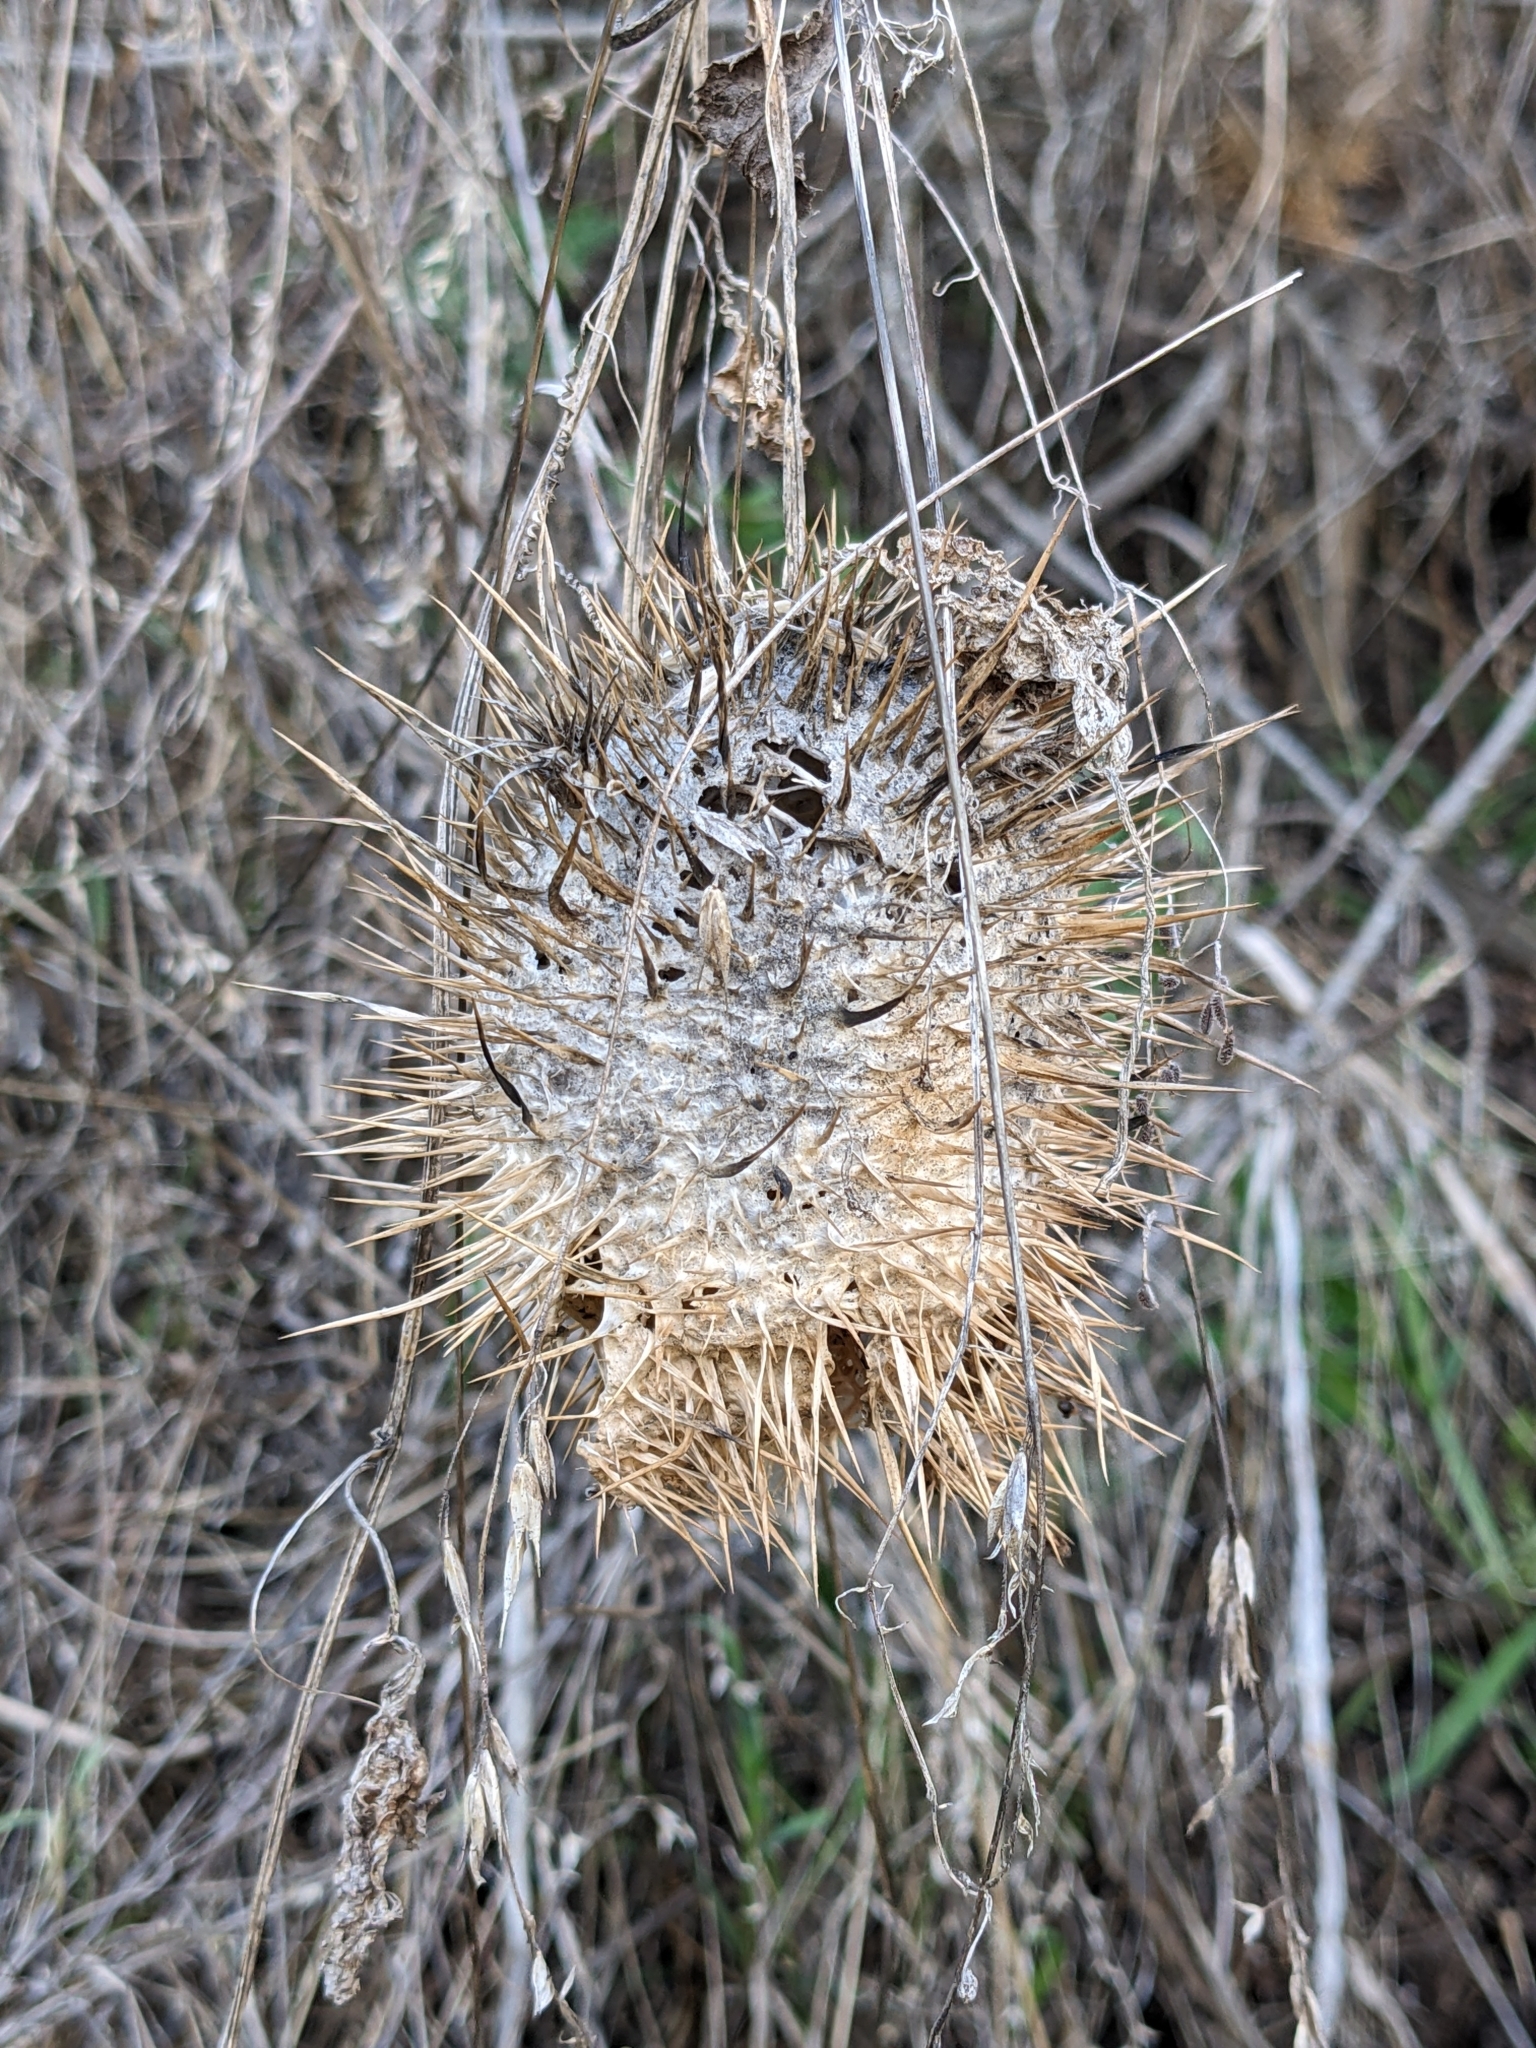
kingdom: Plantae
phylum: Tracheophyta
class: Magnoliopsida
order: Cucurbitales
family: Cucurbitaceae
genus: Marah
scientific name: Marah macrocarpa
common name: Cucamonga manroot
